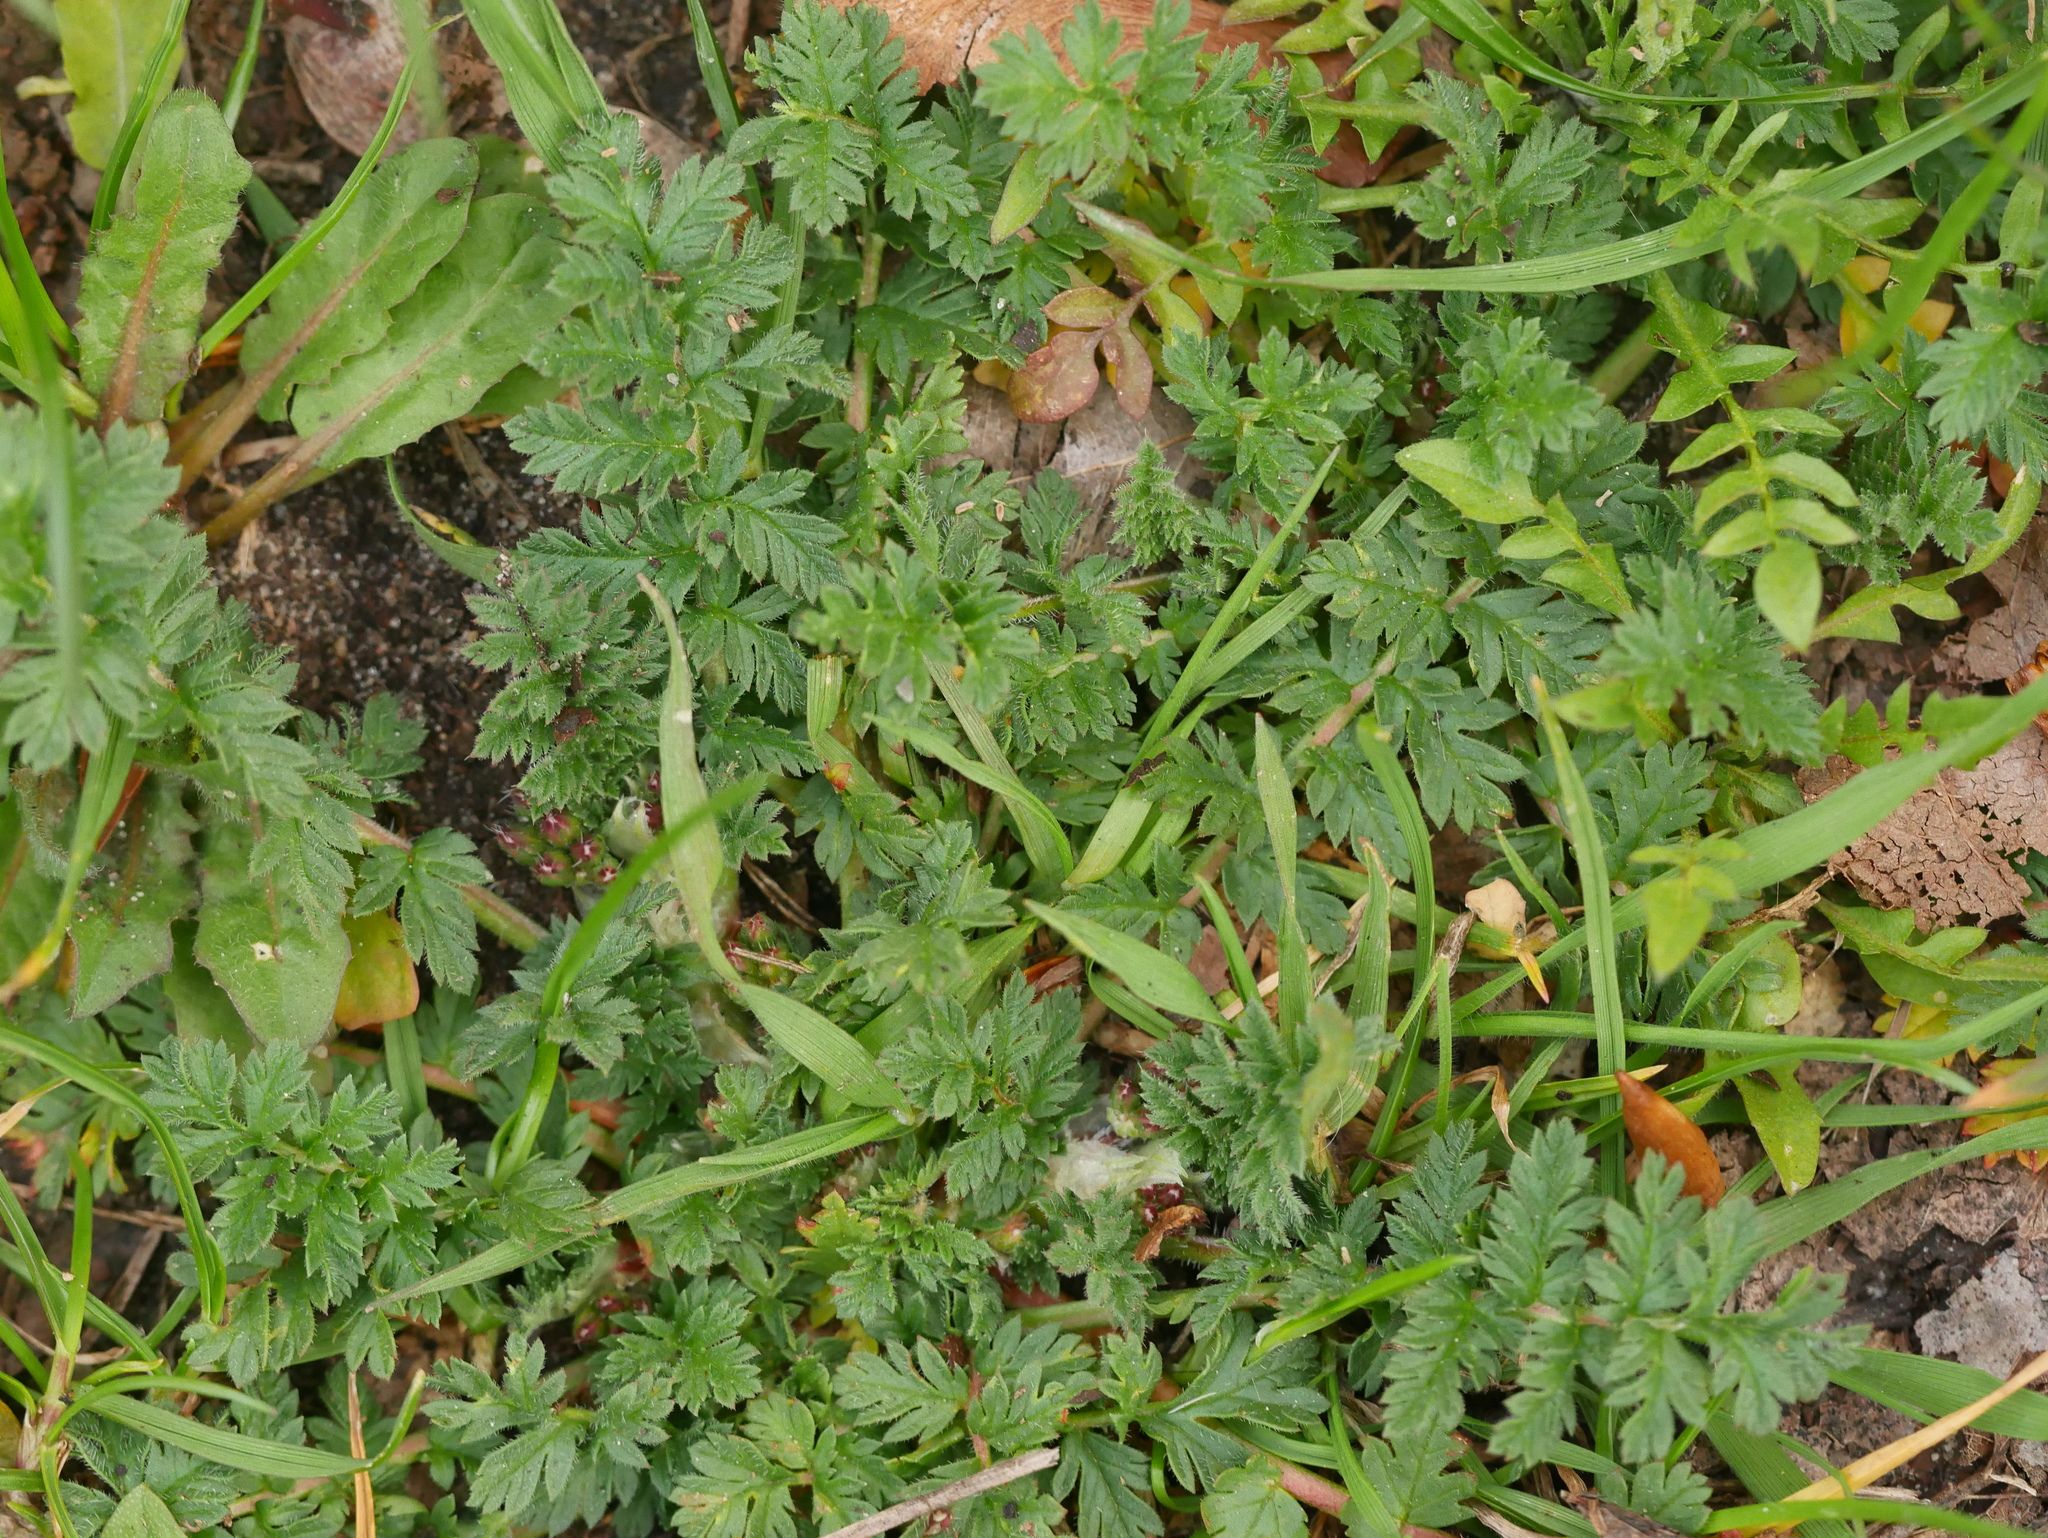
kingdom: Plantae
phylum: Tracheophyta
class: Magnoliopsida
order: Geraniales
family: Geraniaceae
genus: Erodium
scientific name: Erodium cicutarium
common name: Common stork's-bill
